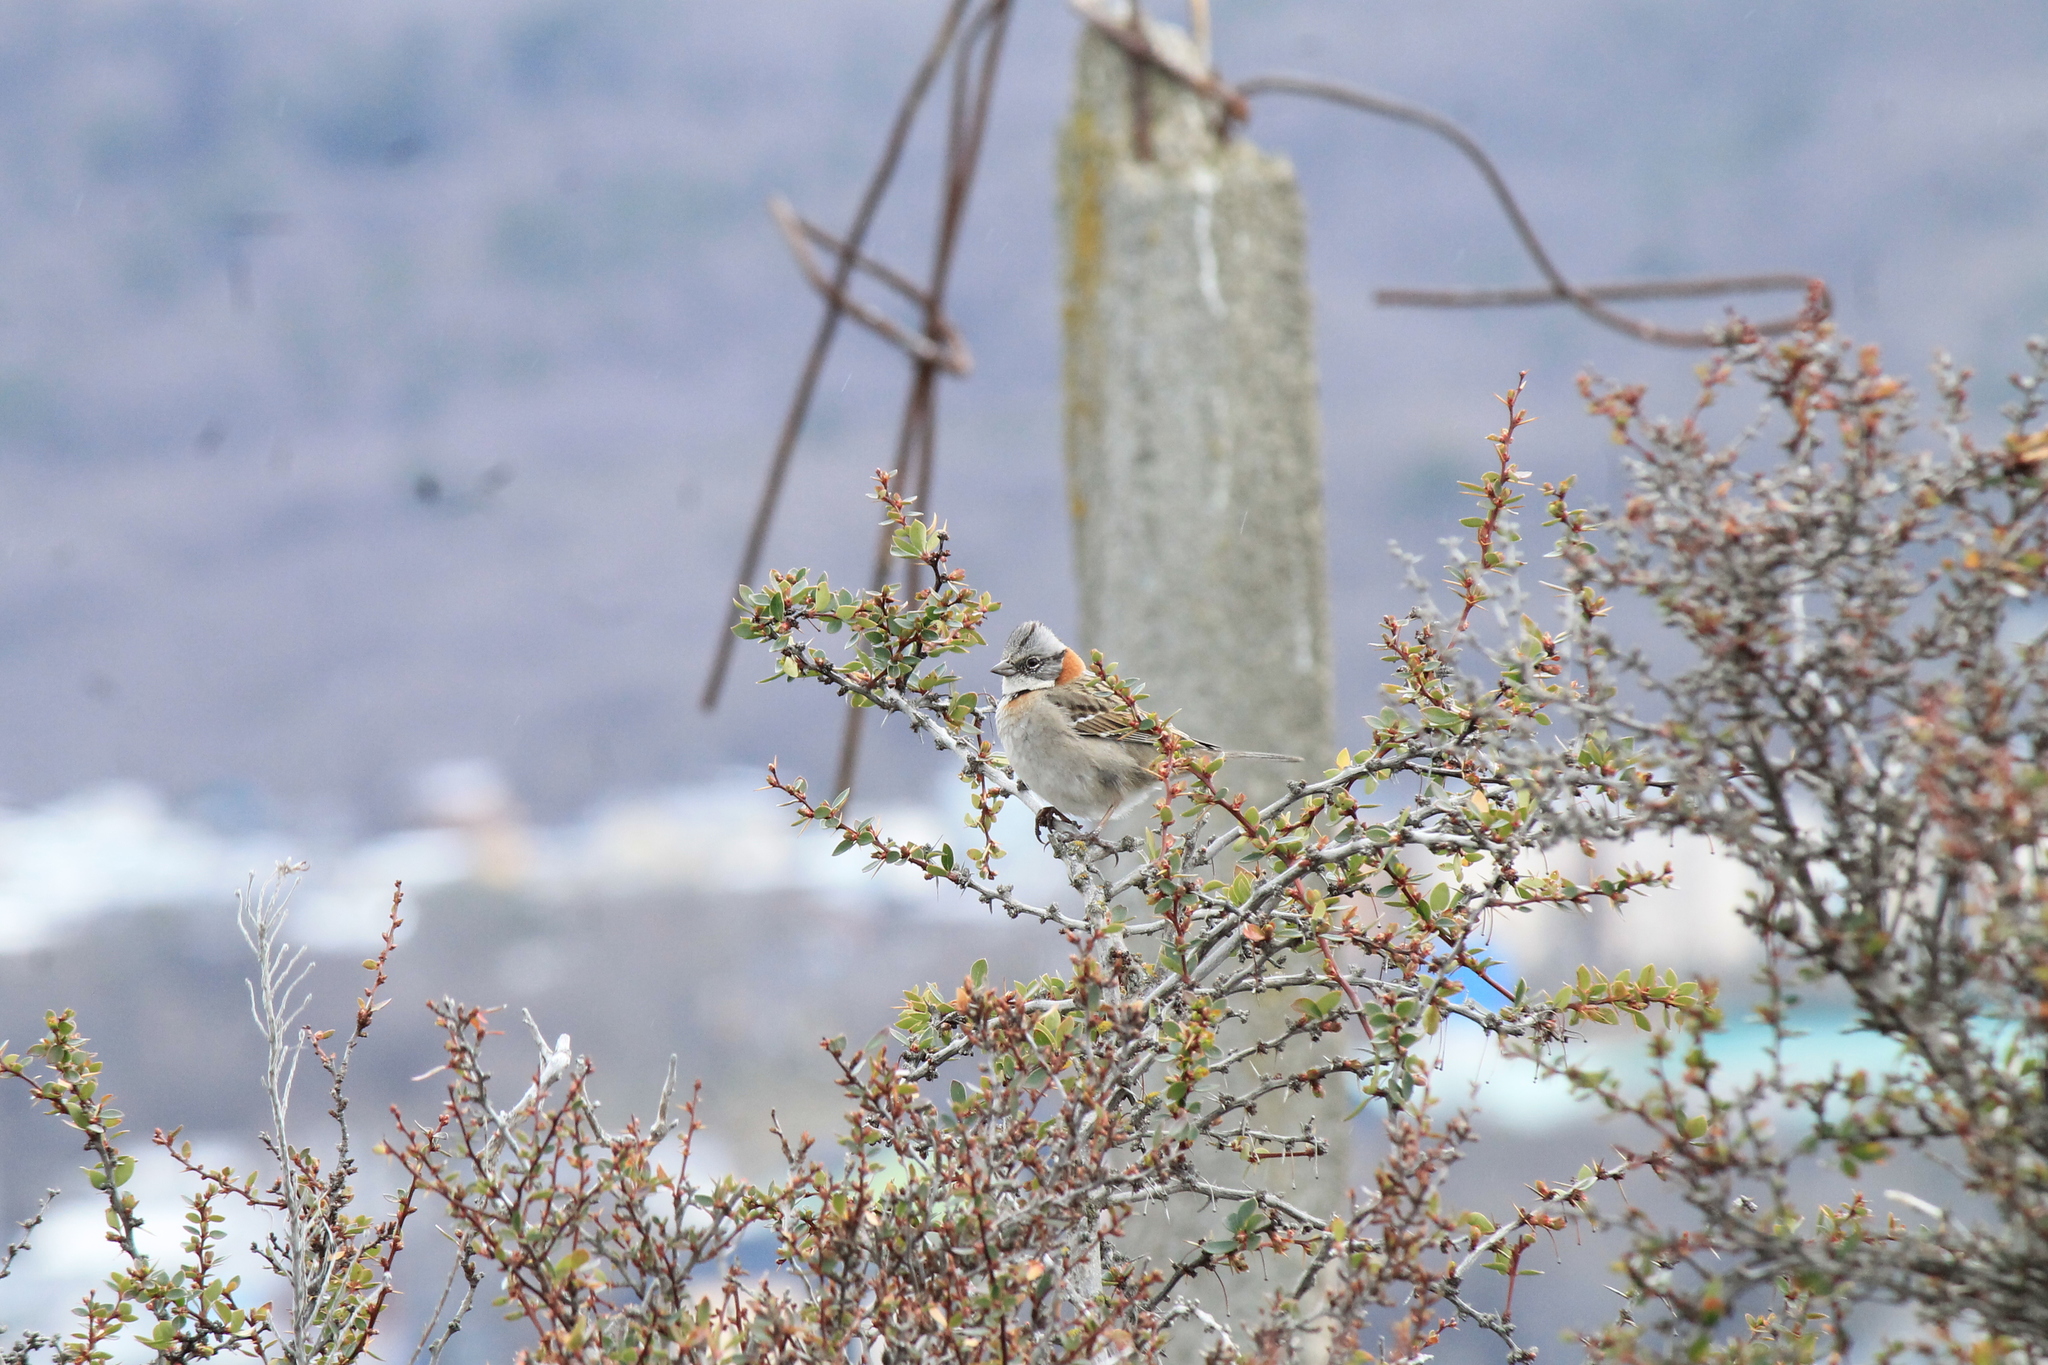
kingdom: Animalia
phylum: Chordata
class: Aves
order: Passeriformes
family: Passerellidae
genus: Zonotrichia
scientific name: Zonotrichia capensis
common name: Rufous-collared sparrow
